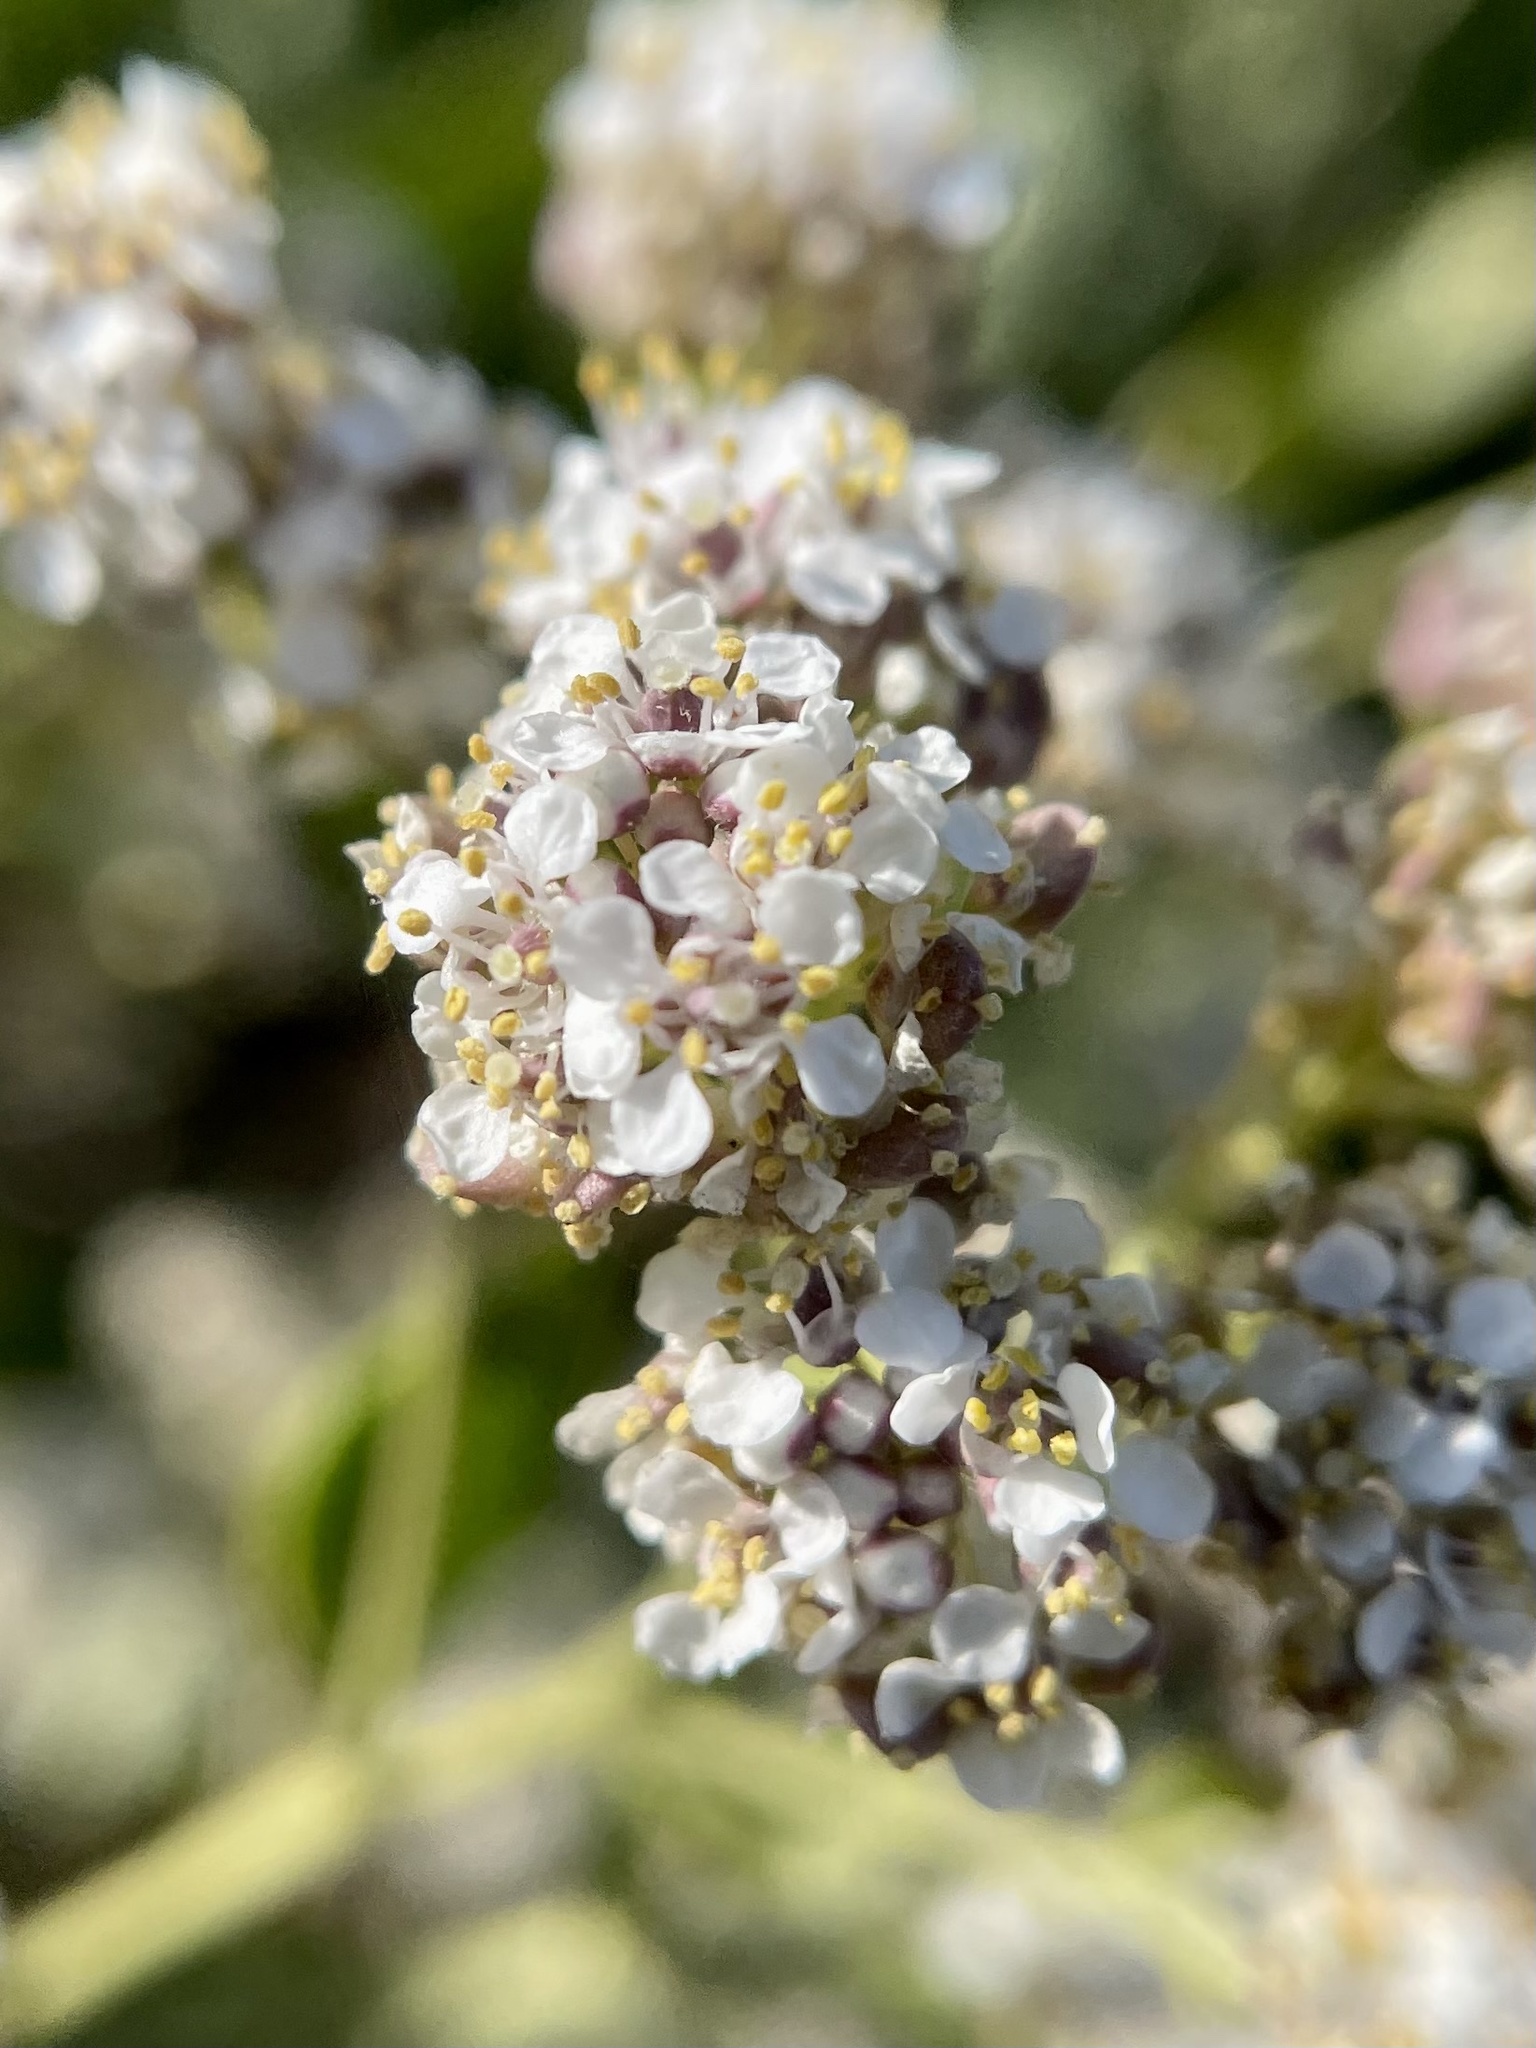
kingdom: Plantae
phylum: Tracheophyta
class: Magnoliopsida
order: Brassicales
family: Brassicaceae
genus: Lepidium
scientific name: Lepidium latifolium
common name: Dittander
